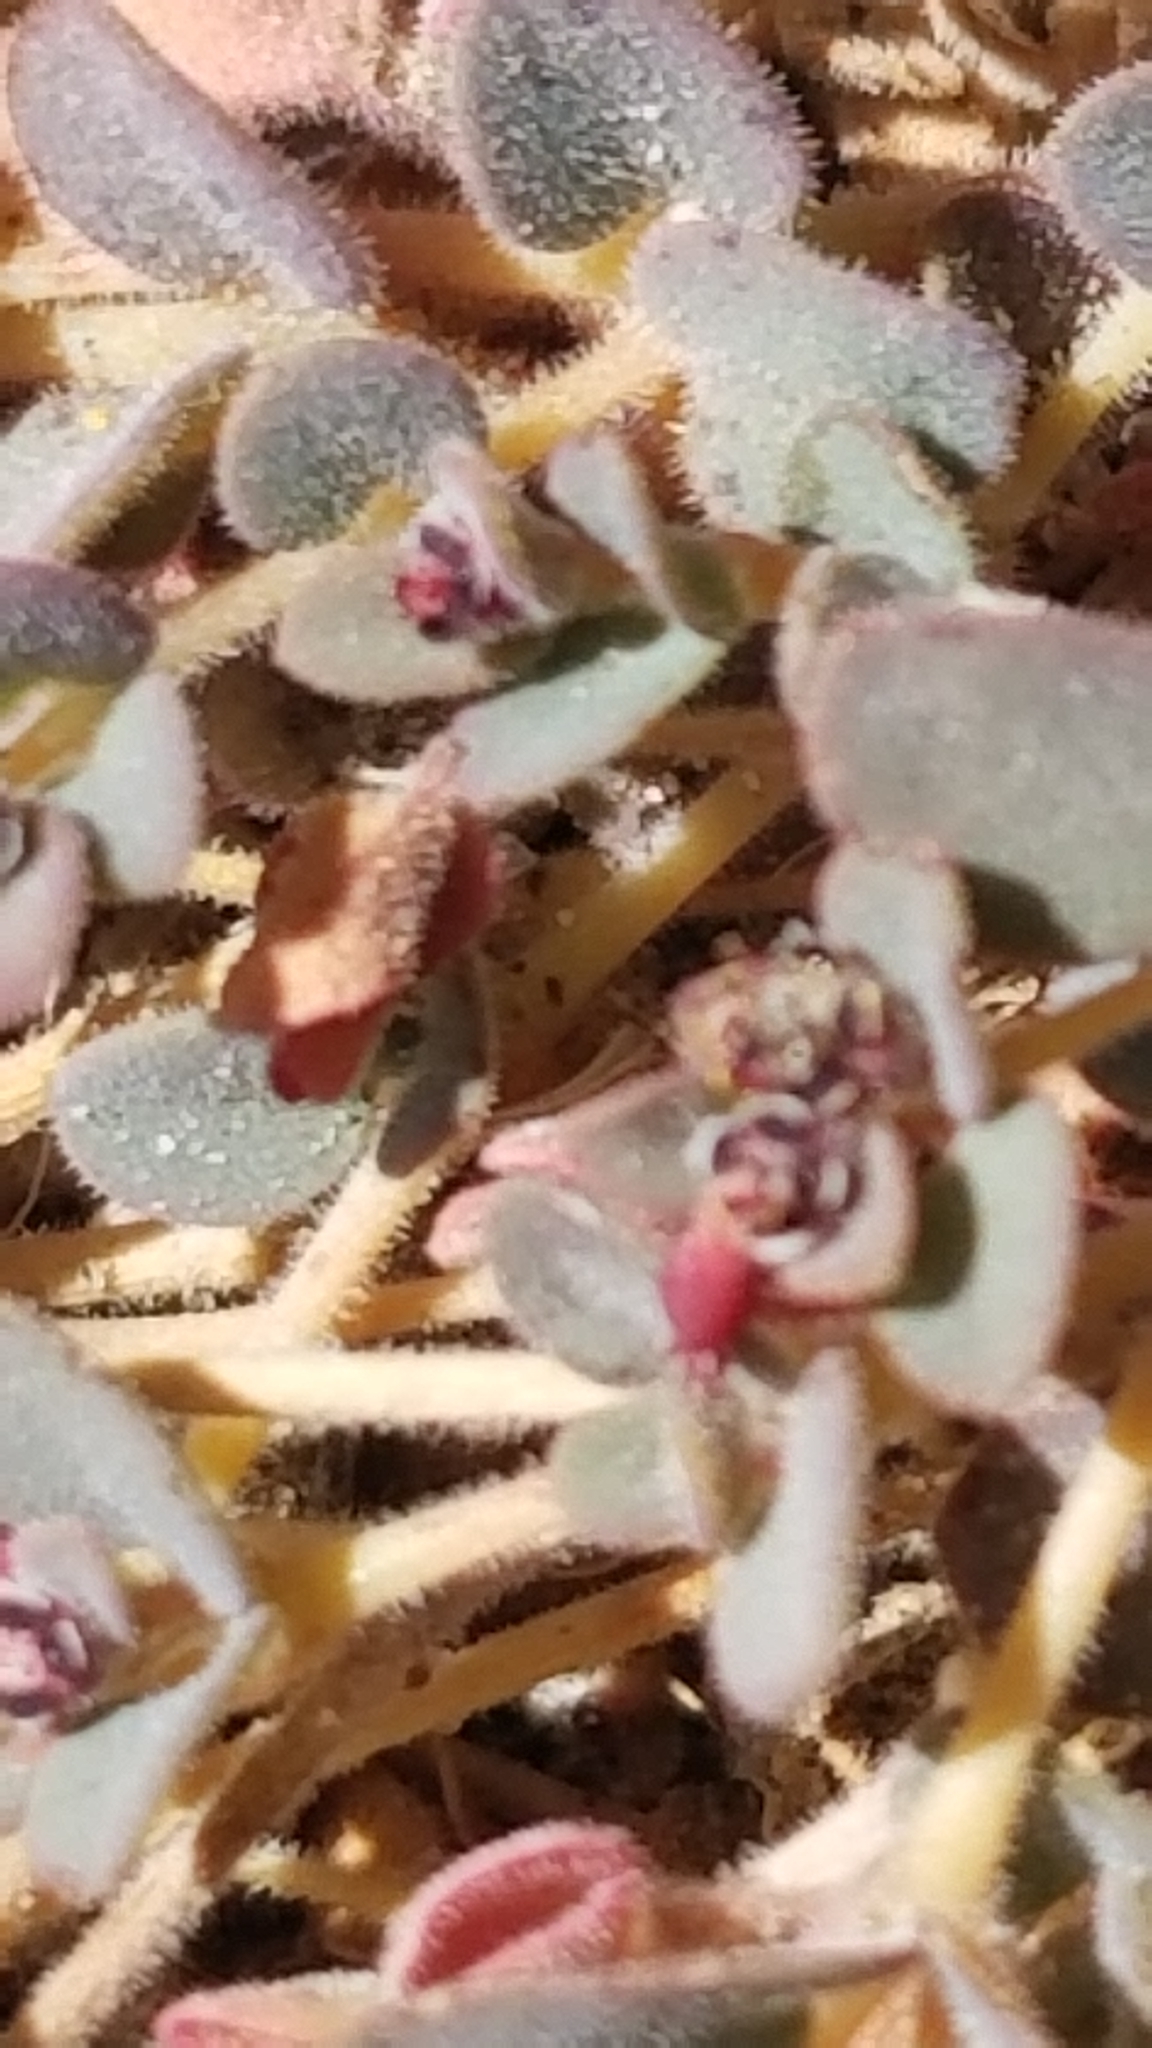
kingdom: Plantae
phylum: Tracheophyta
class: Magnoliopsida
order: Malpighiales
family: Euphorbiaceae
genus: Euphorbia
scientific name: Euphorbia polycarpa
